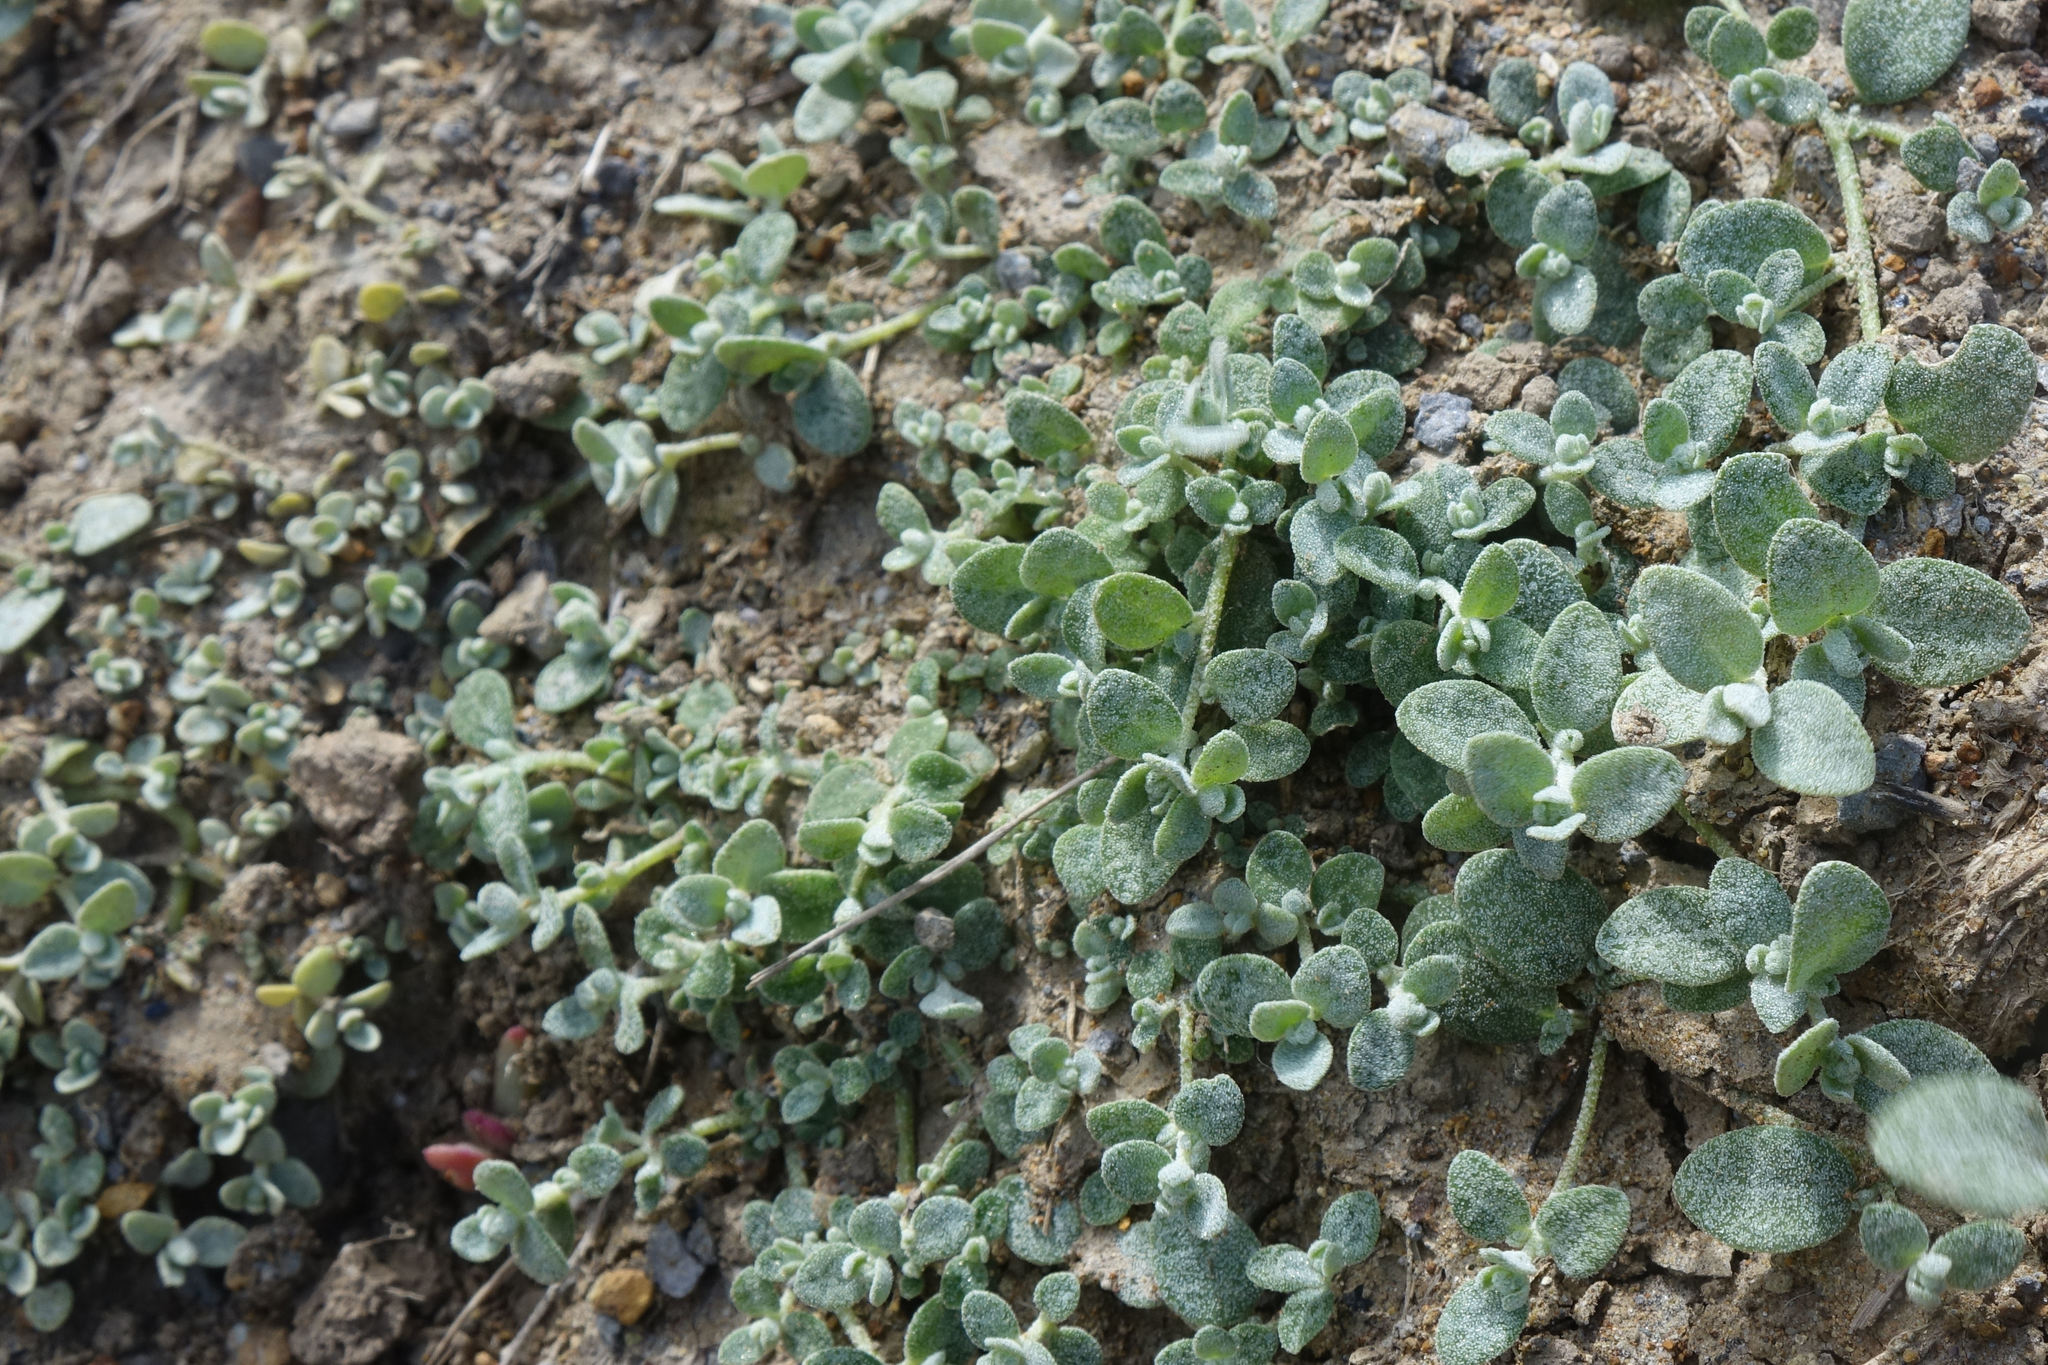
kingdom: Plantae
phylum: Tracheophyta
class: Magnoliopsida
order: Caryophyllales
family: Amaranthaceae
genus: Atriplex
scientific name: Atriplex buchananii
